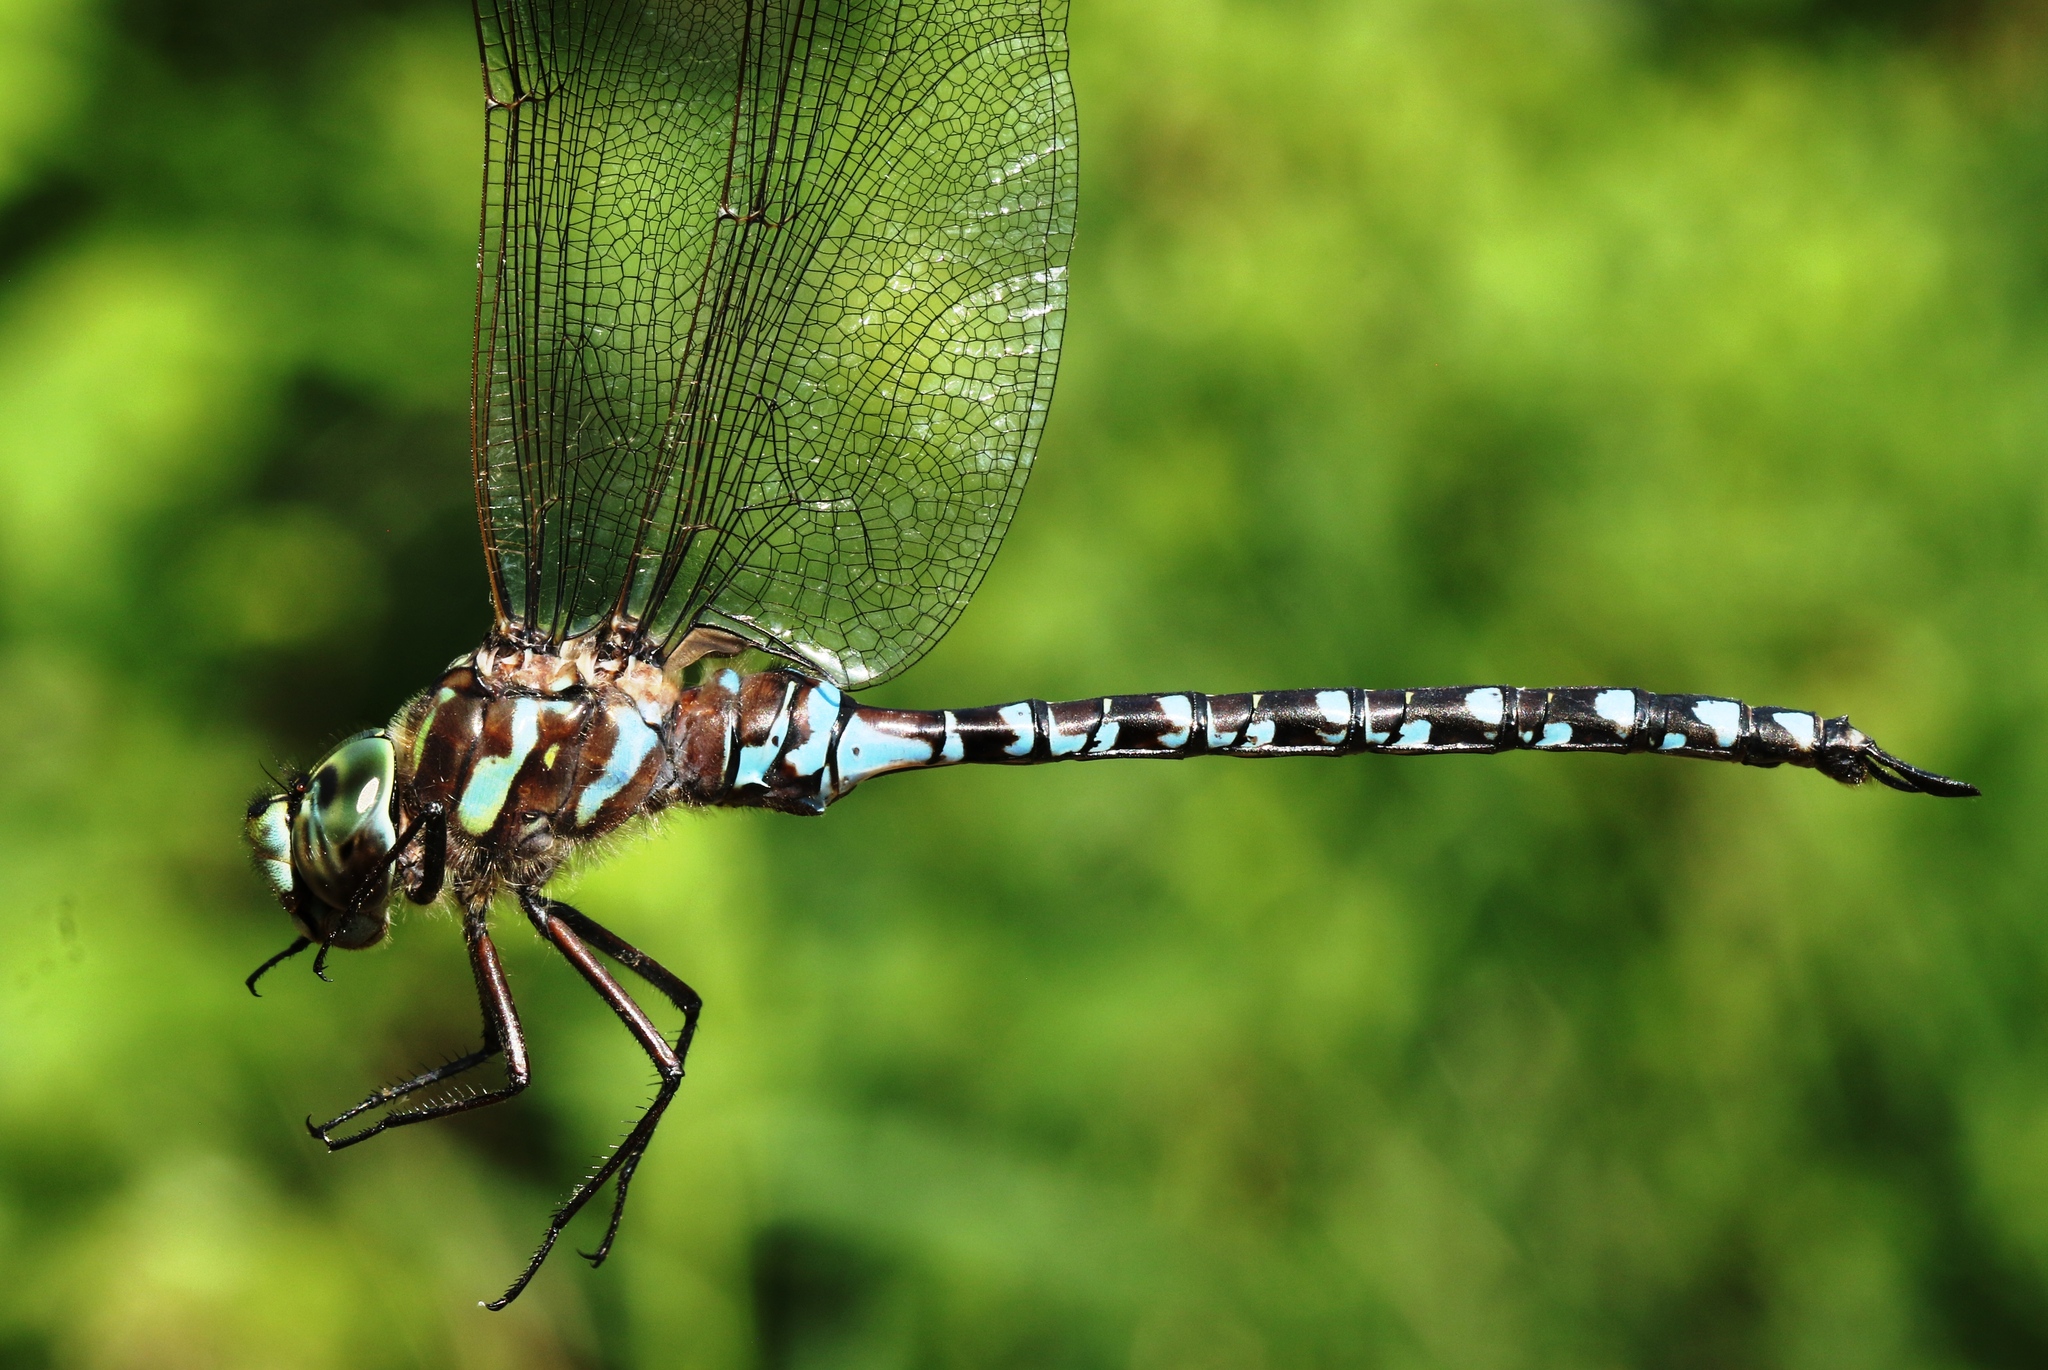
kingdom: Animalia
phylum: Arthropoda
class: Insecta
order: Odonata
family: Aeshnidae
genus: Aeshna
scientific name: Aeshna canadensis
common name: Canada darner
